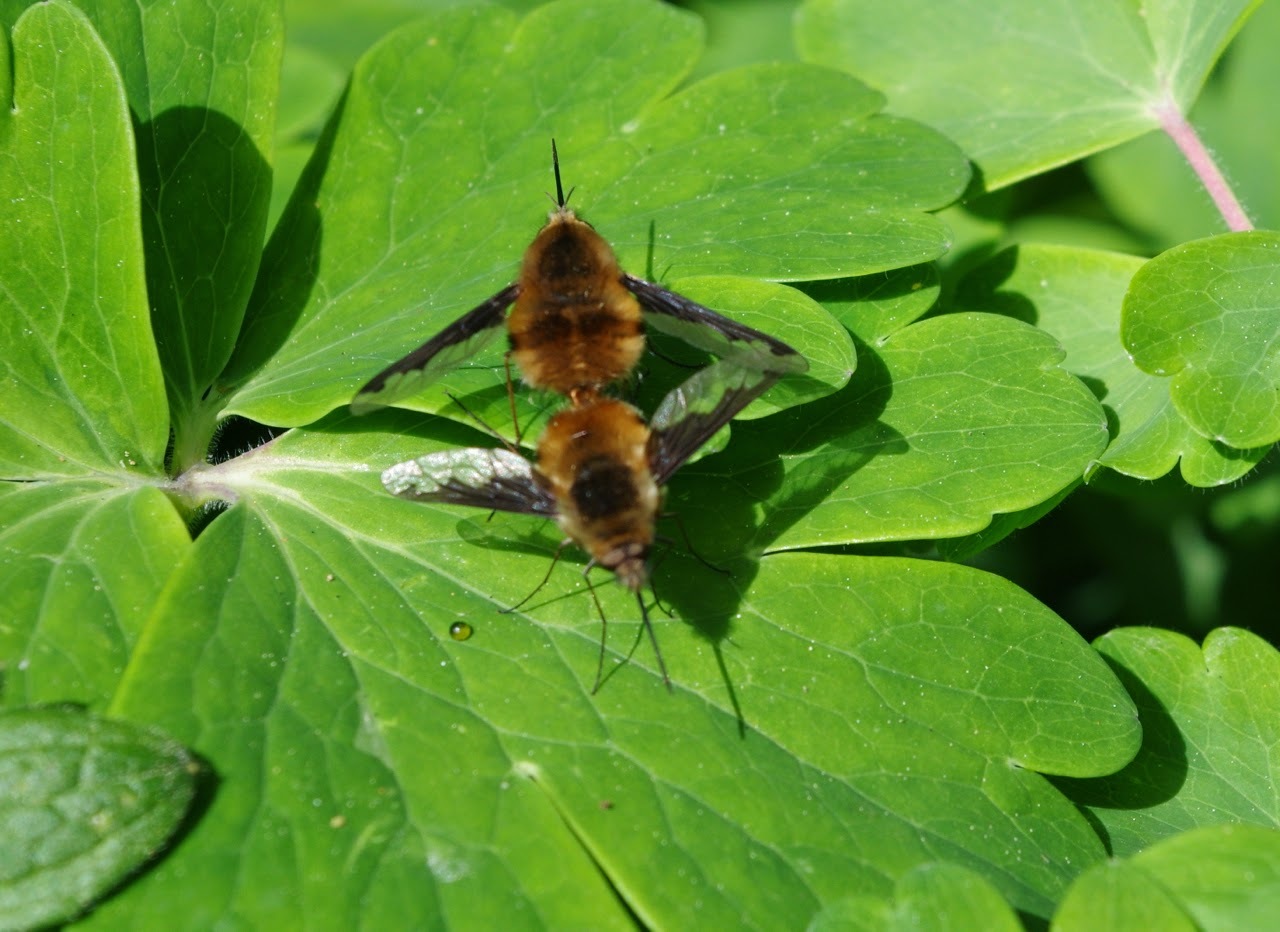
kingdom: Animalia
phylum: Arthropoda
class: Insecta
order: Diptera
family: Bombyliidae
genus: Bombylius
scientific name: Bombylius major
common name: Bee fly
